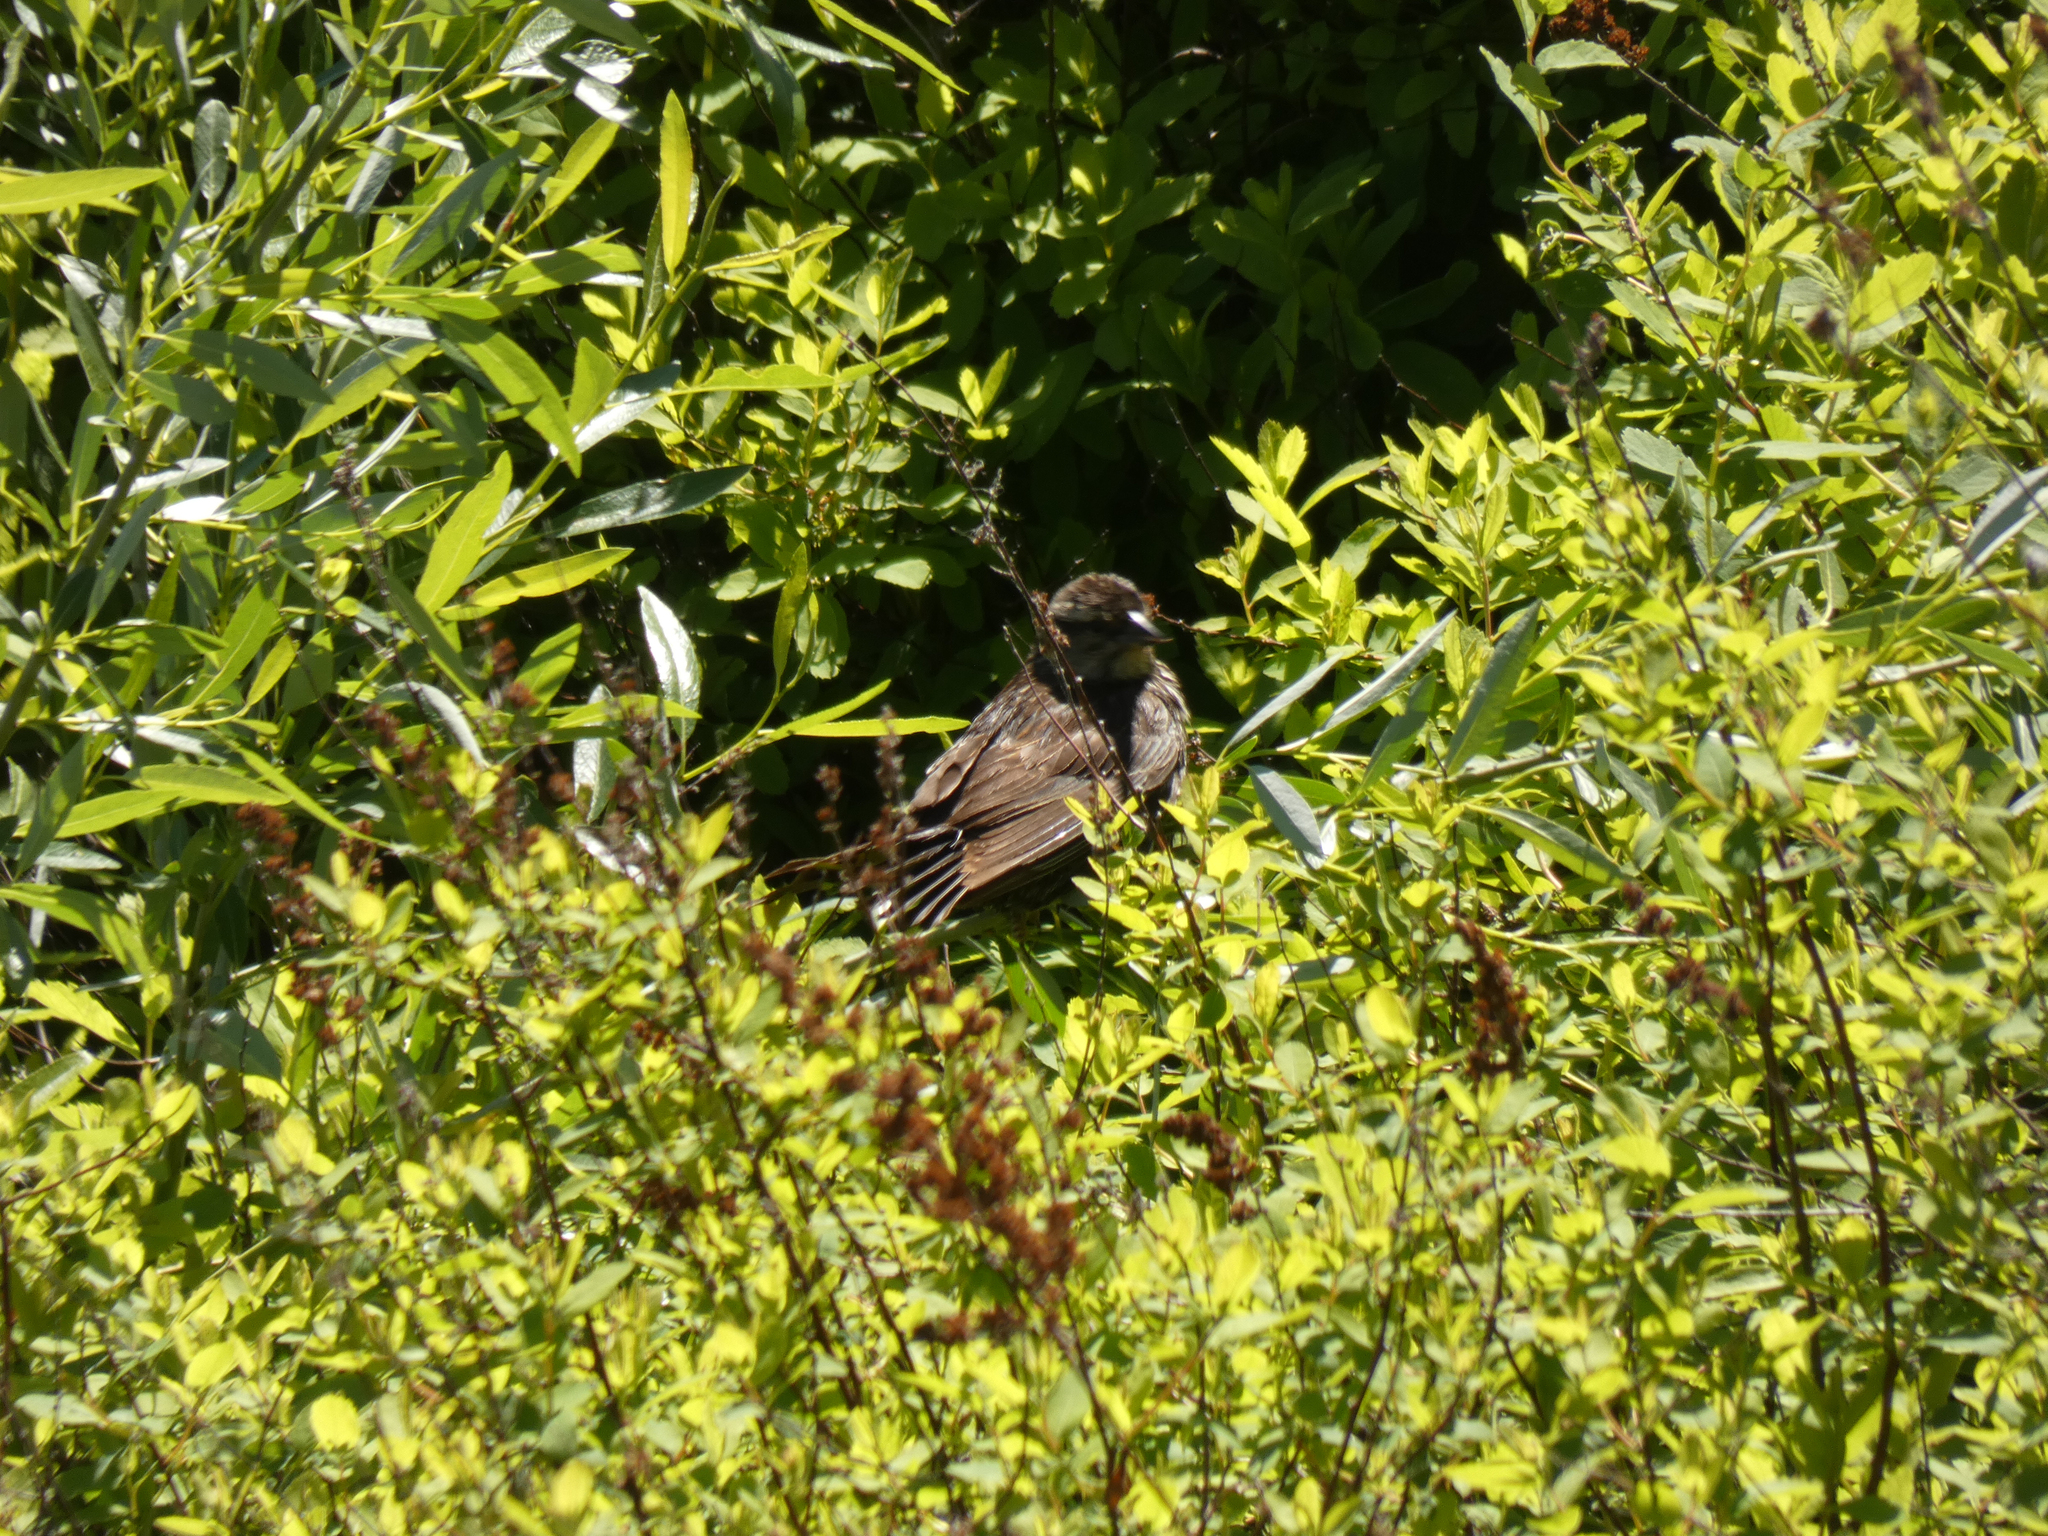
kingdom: Animalia
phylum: Chordata
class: Aves
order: Passeriformes
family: Icteridae
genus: Agelaius
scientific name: Agelaius phoeniceus
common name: Red-winged blackbird
